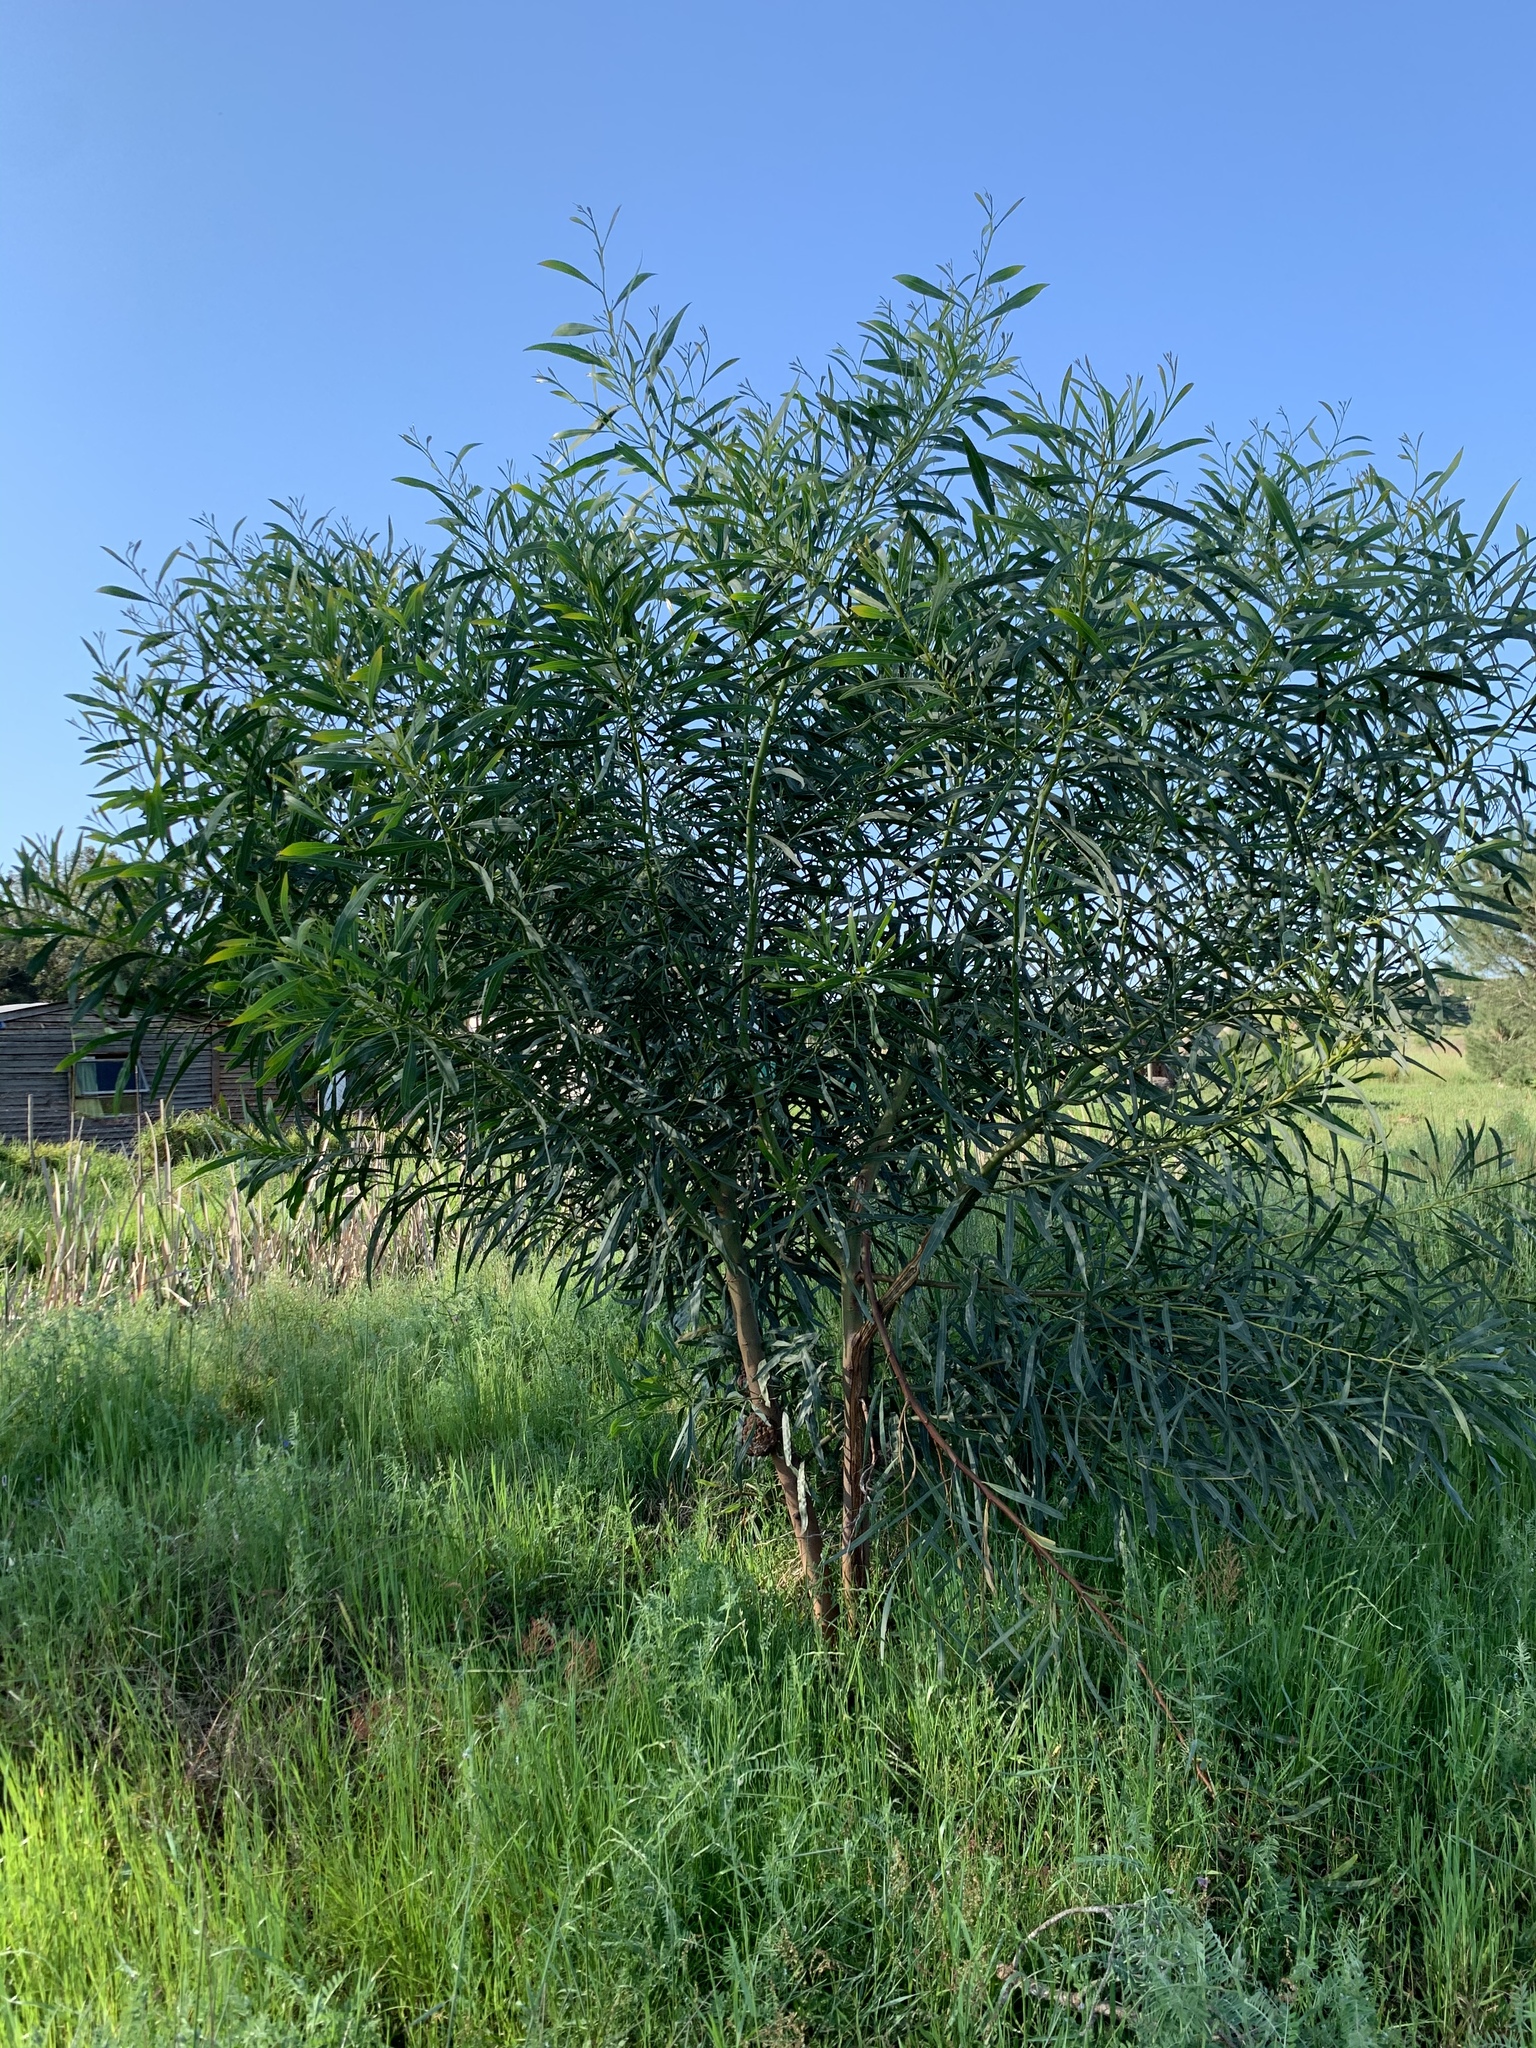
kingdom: Plantae
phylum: Tracheophyta
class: Magnoliopsida
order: Fabales
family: Fabaceae
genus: Acacia
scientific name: Acacia saligna
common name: Orange wattle
